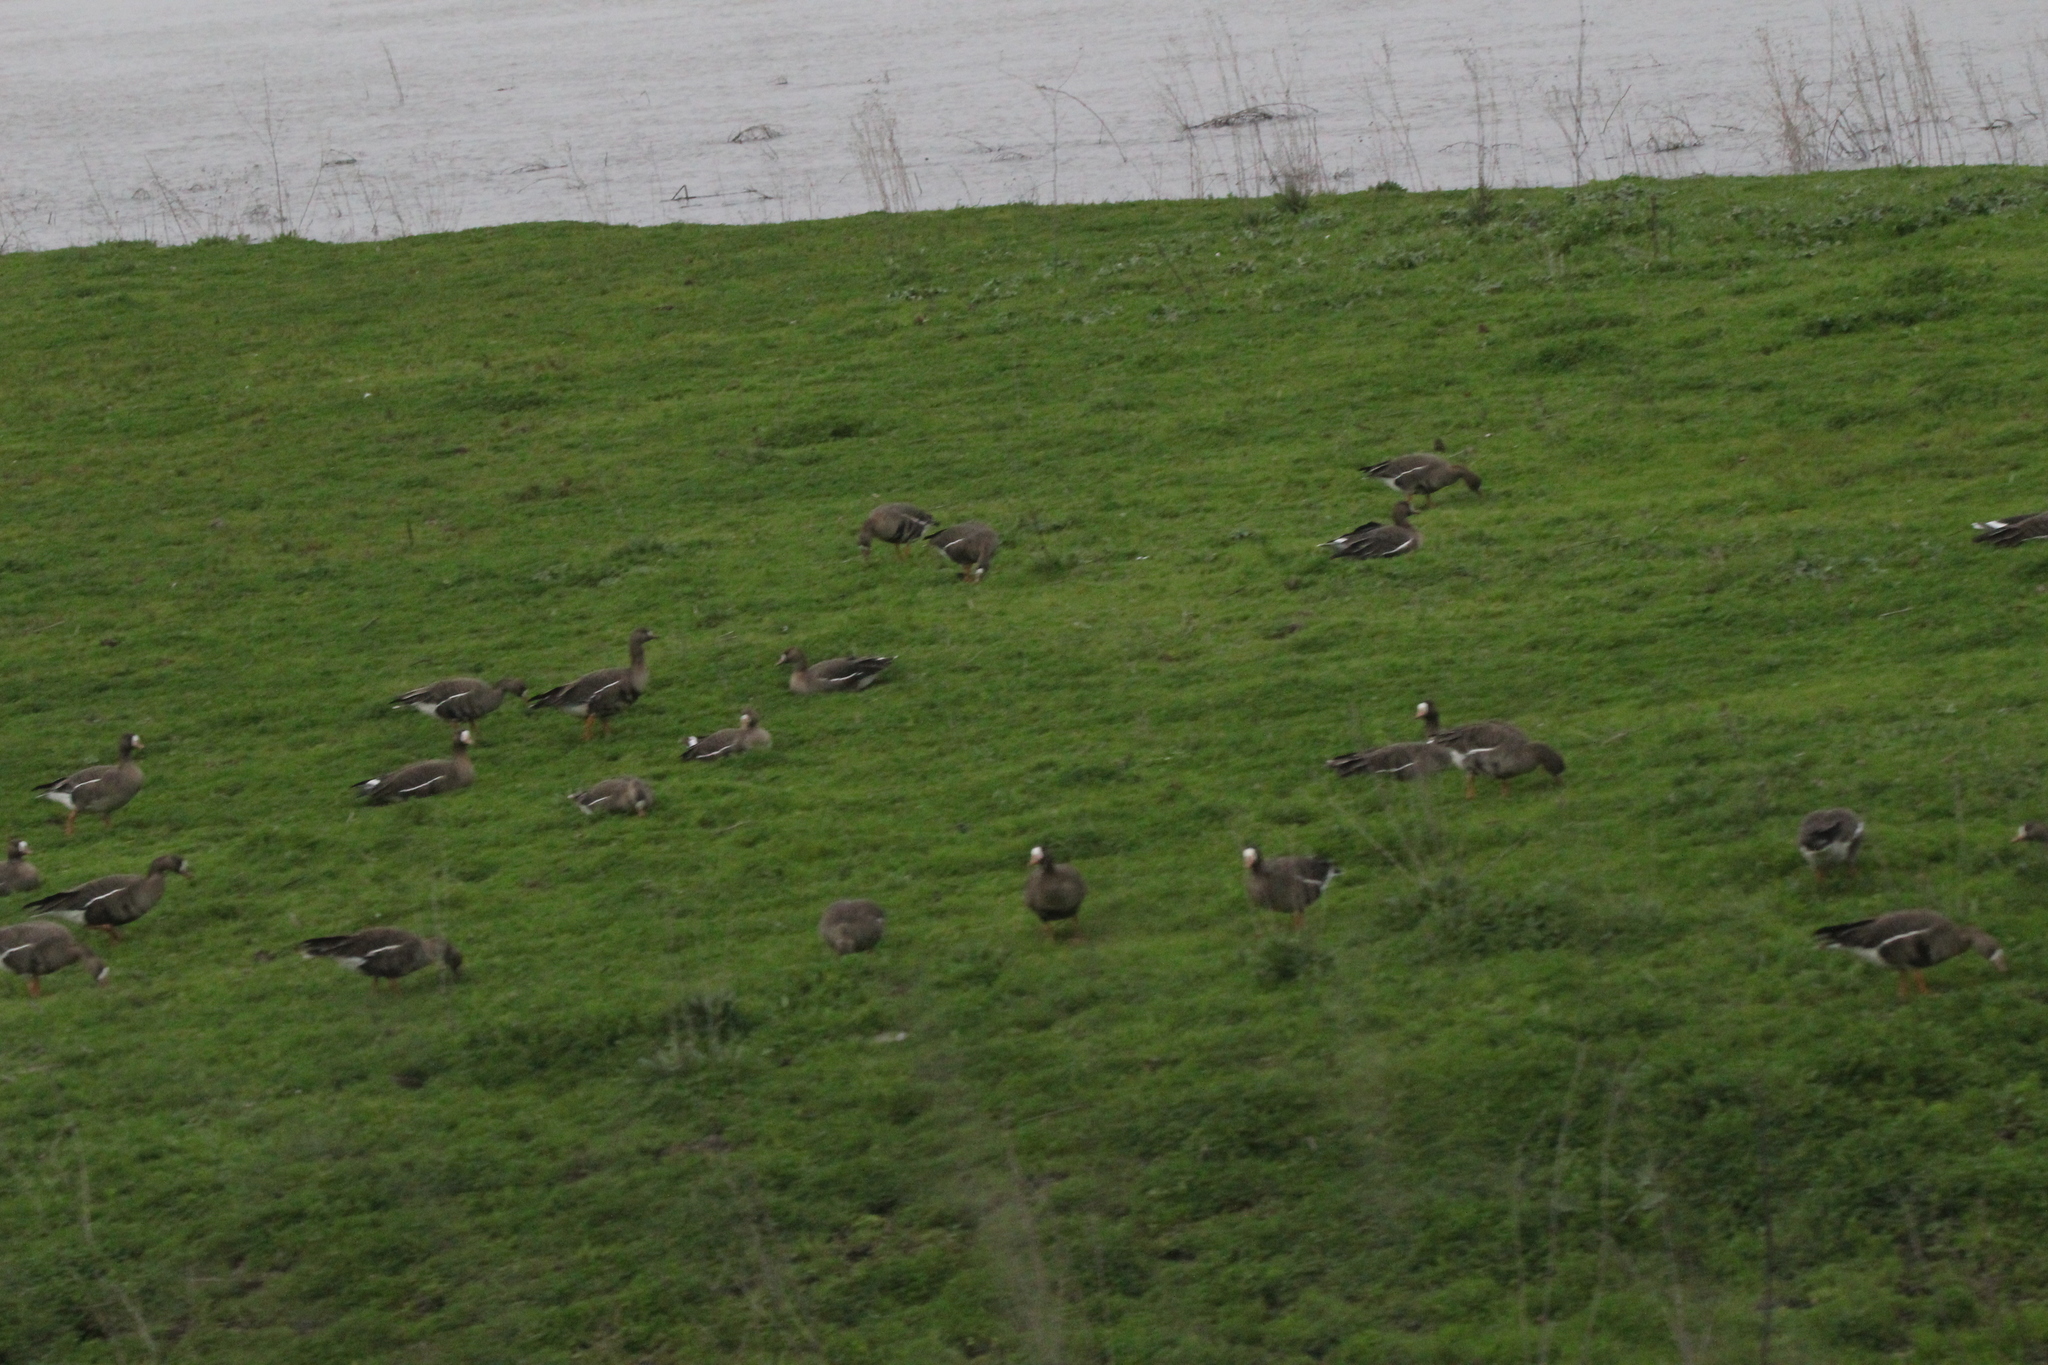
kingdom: Animalia
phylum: Chordata
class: Aves
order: Anseriformes
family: Anatidae
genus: Anser
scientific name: Anser albifrons
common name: Greater white-fronted goose
